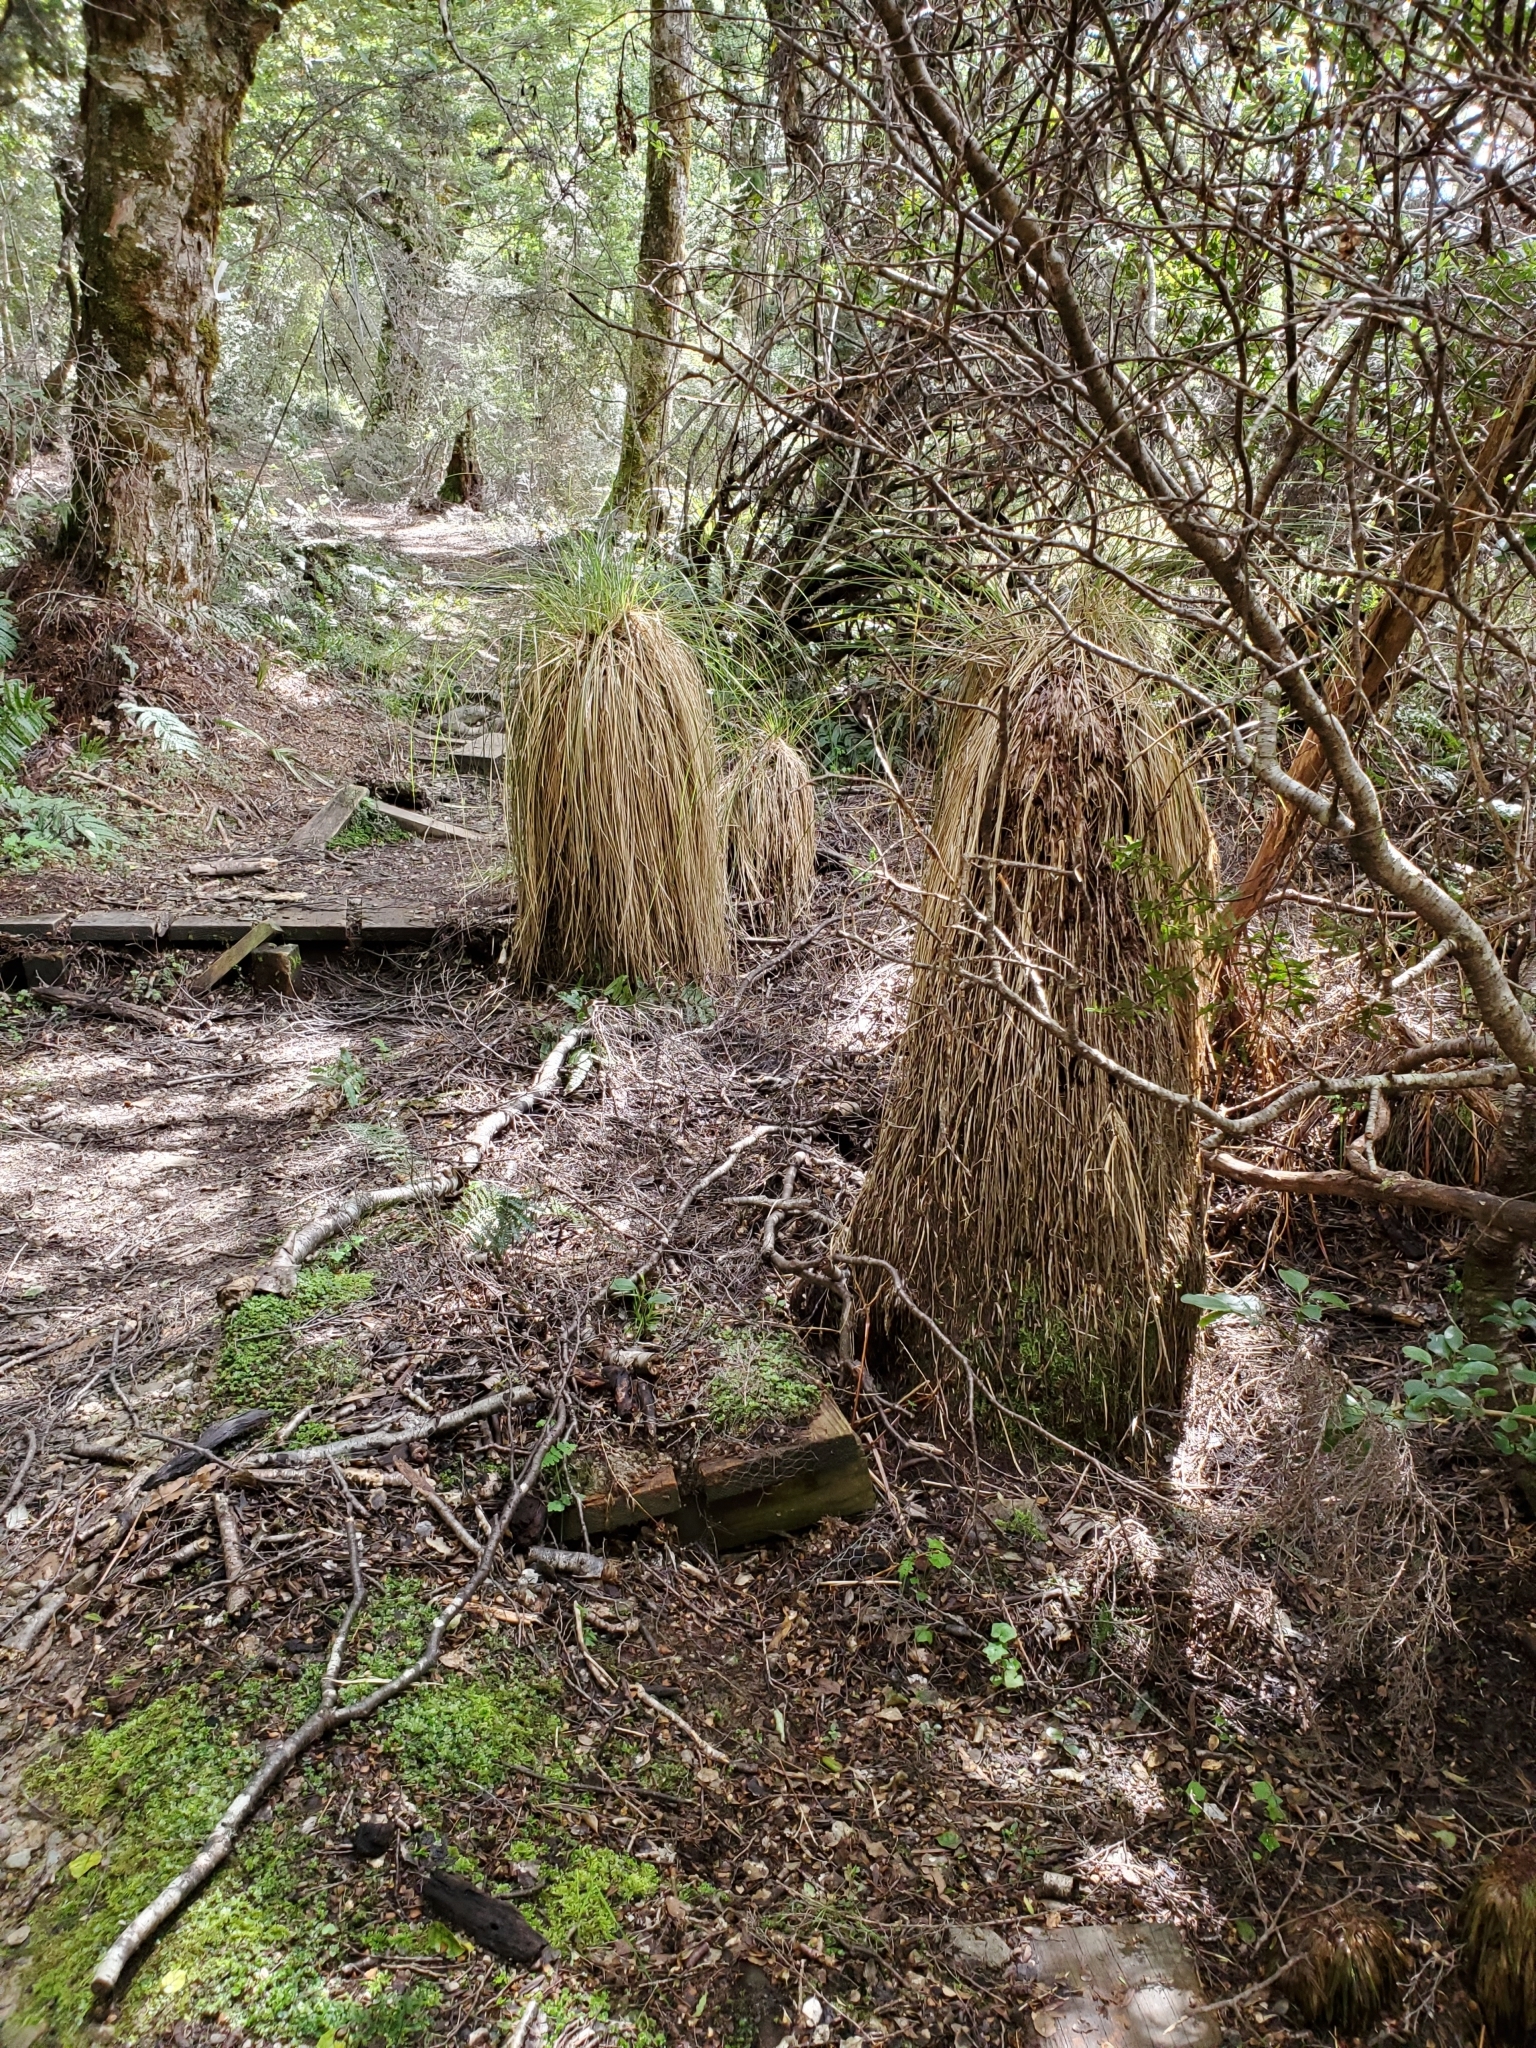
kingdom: Plantae
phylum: Tracheophyta
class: Liliopsida
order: Poales
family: Cyperaceae
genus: Carex
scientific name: Carex secta
